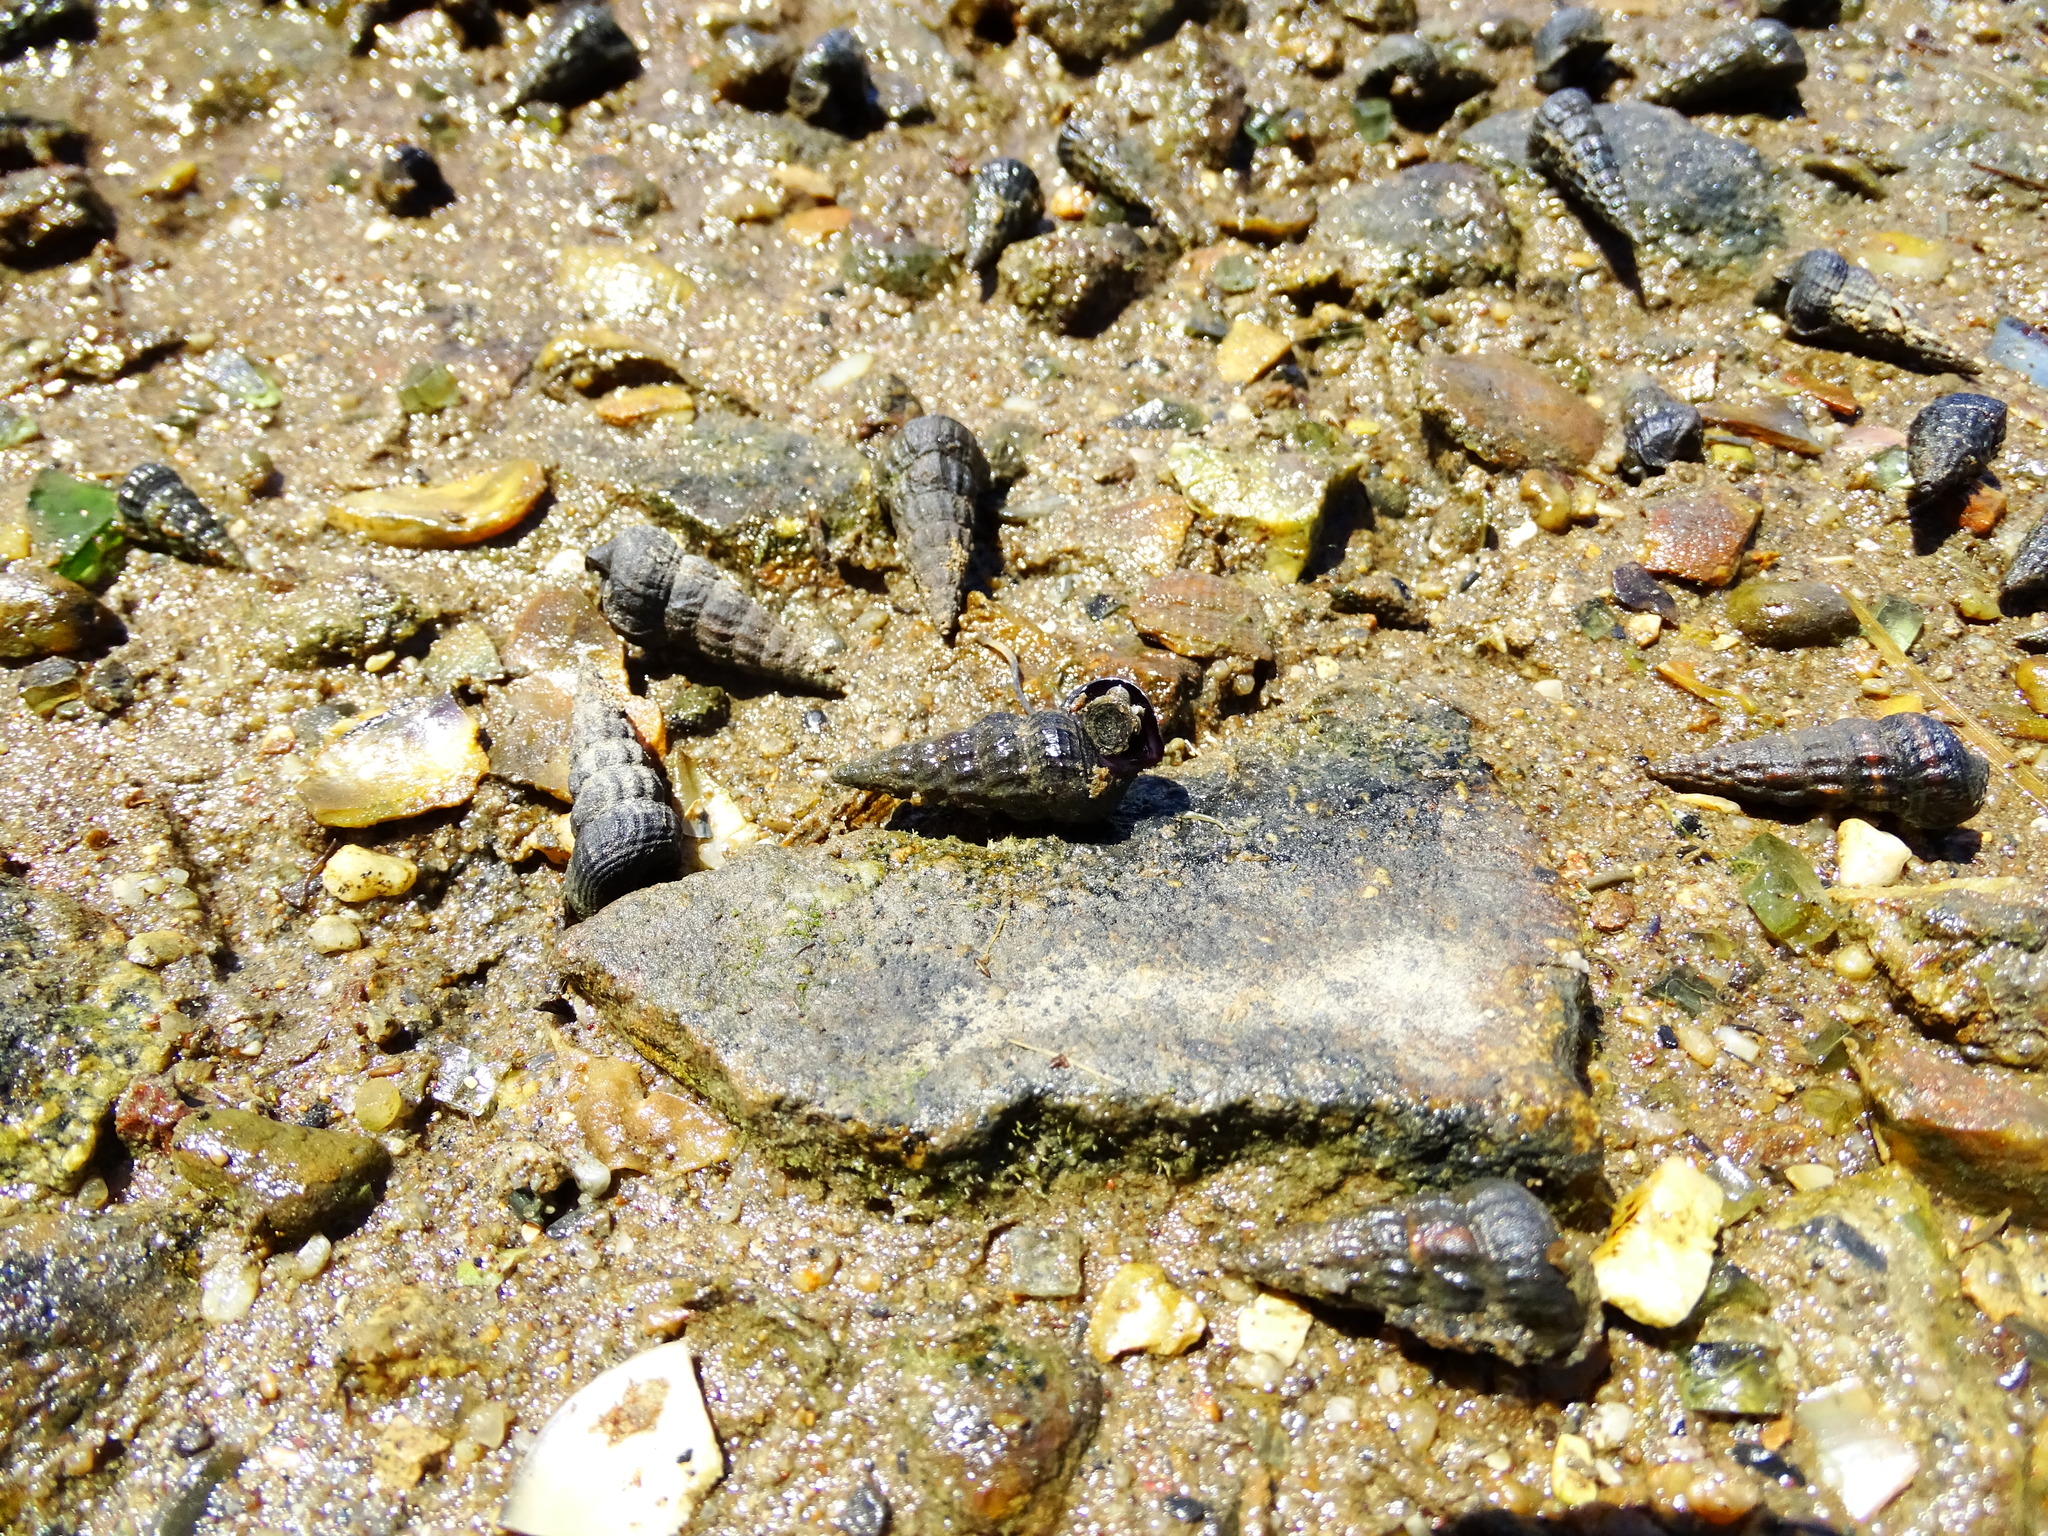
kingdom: Animalia
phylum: Mollusca
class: Gastropoda
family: Potamididae
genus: Cerithideopsis
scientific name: Cerithideopsis californica
